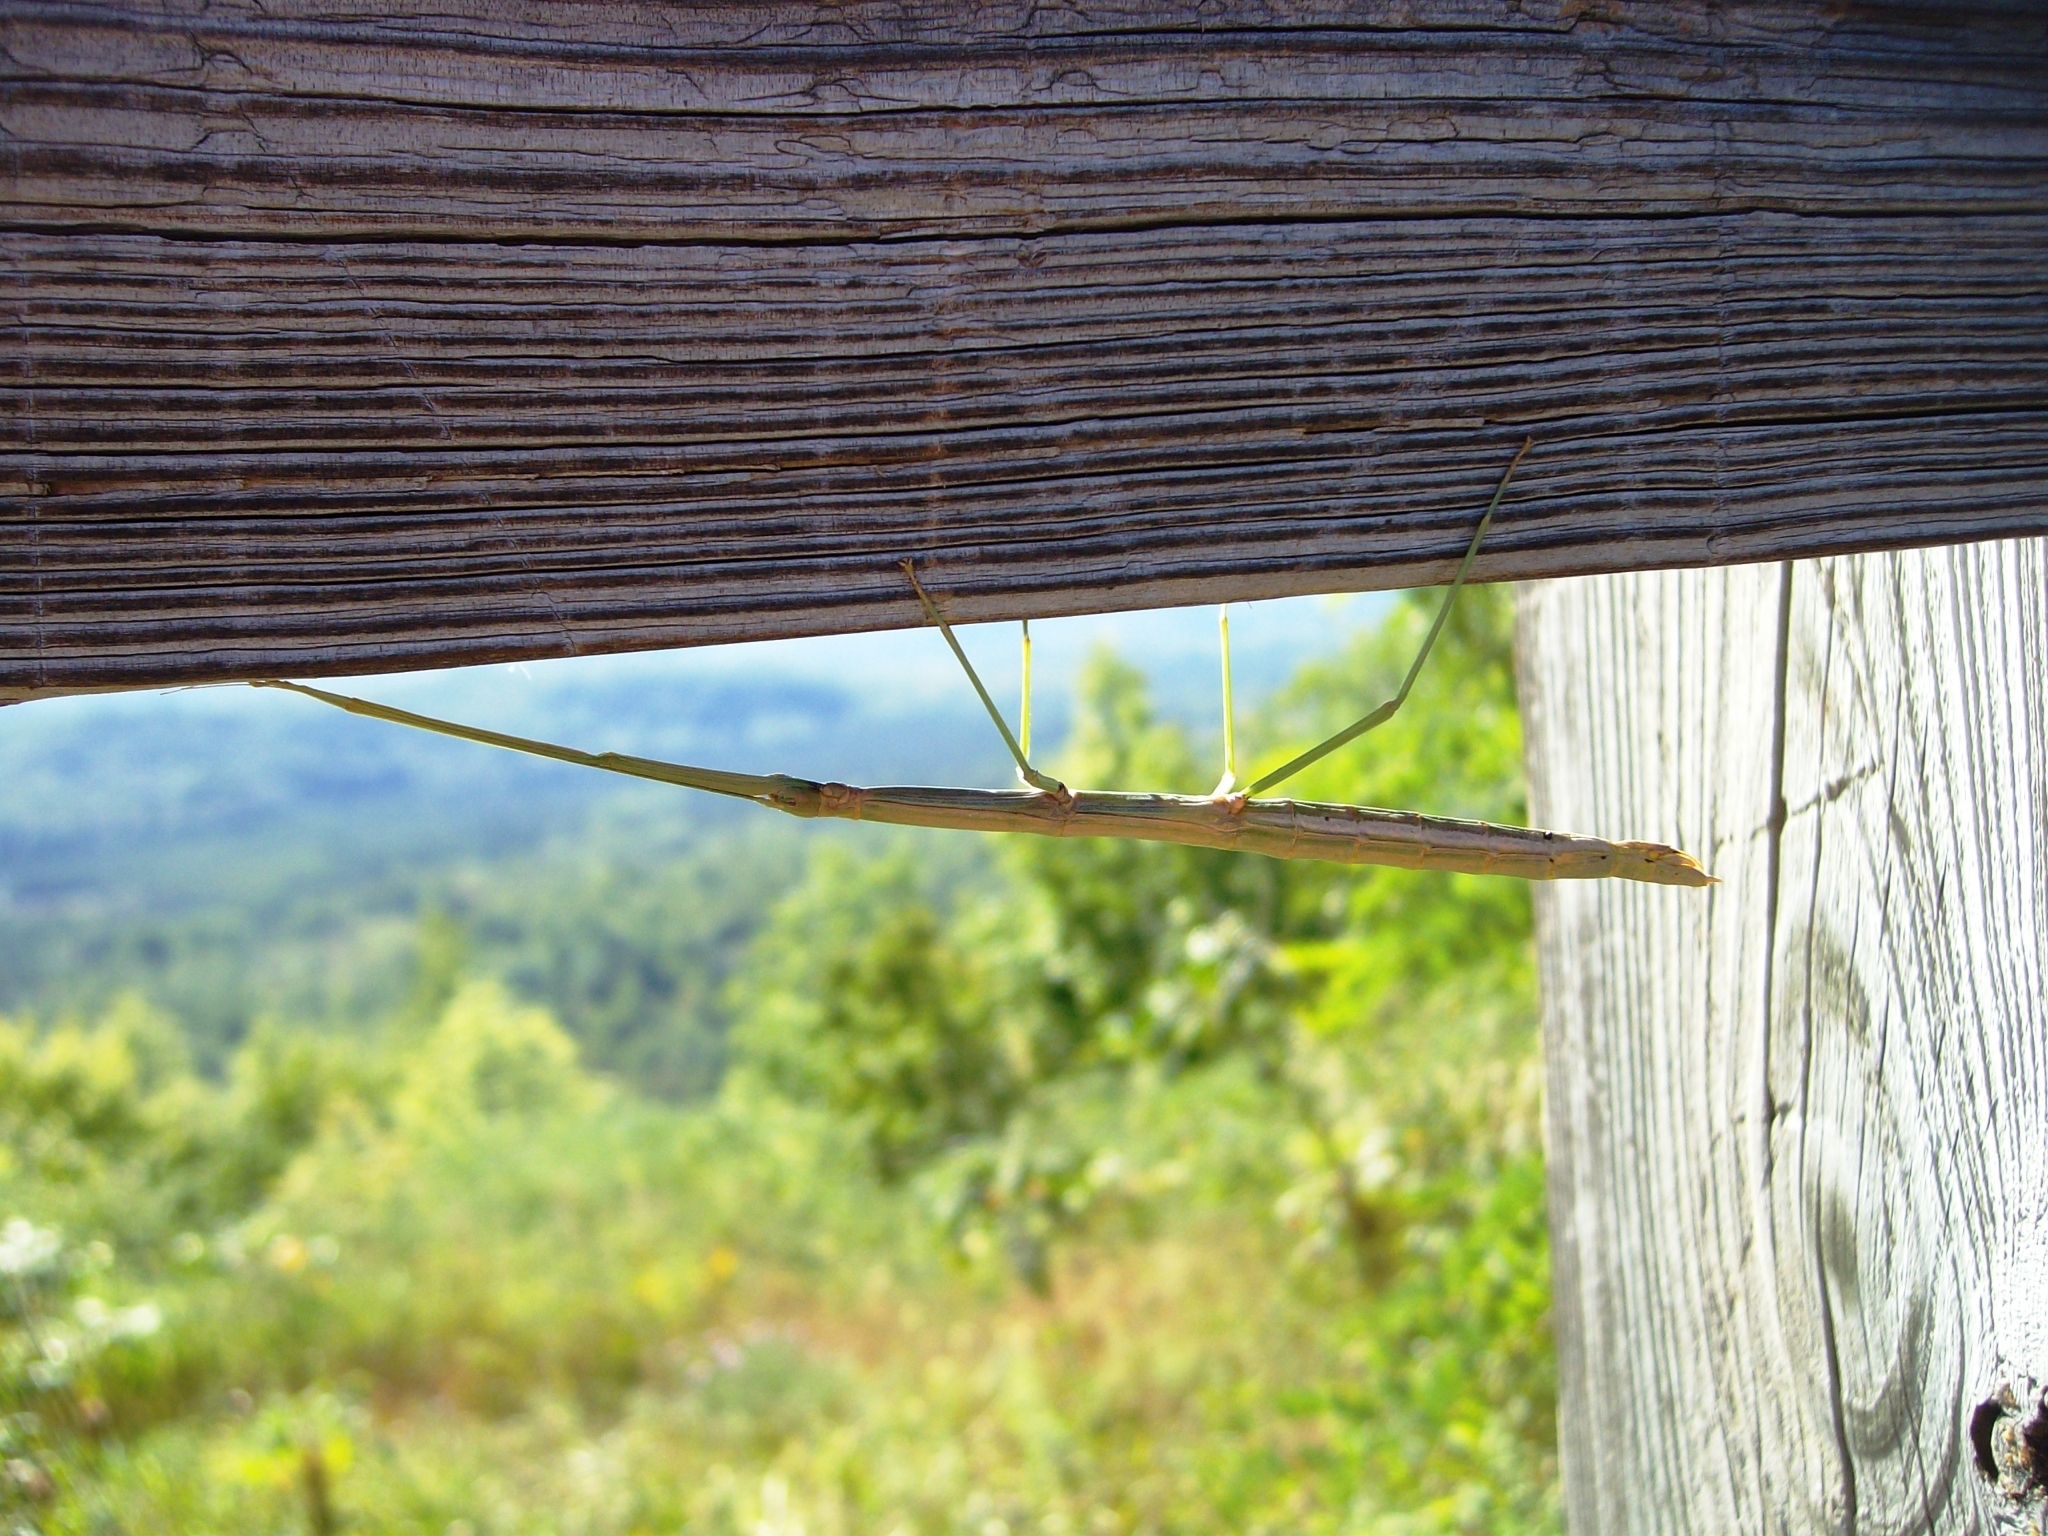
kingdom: Animalia
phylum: Arthropoda
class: Insecta
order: Phasmida
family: Diapheromeridae
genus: Diapheromera
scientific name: Diapheromera femorata
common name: Common american walkingstick
